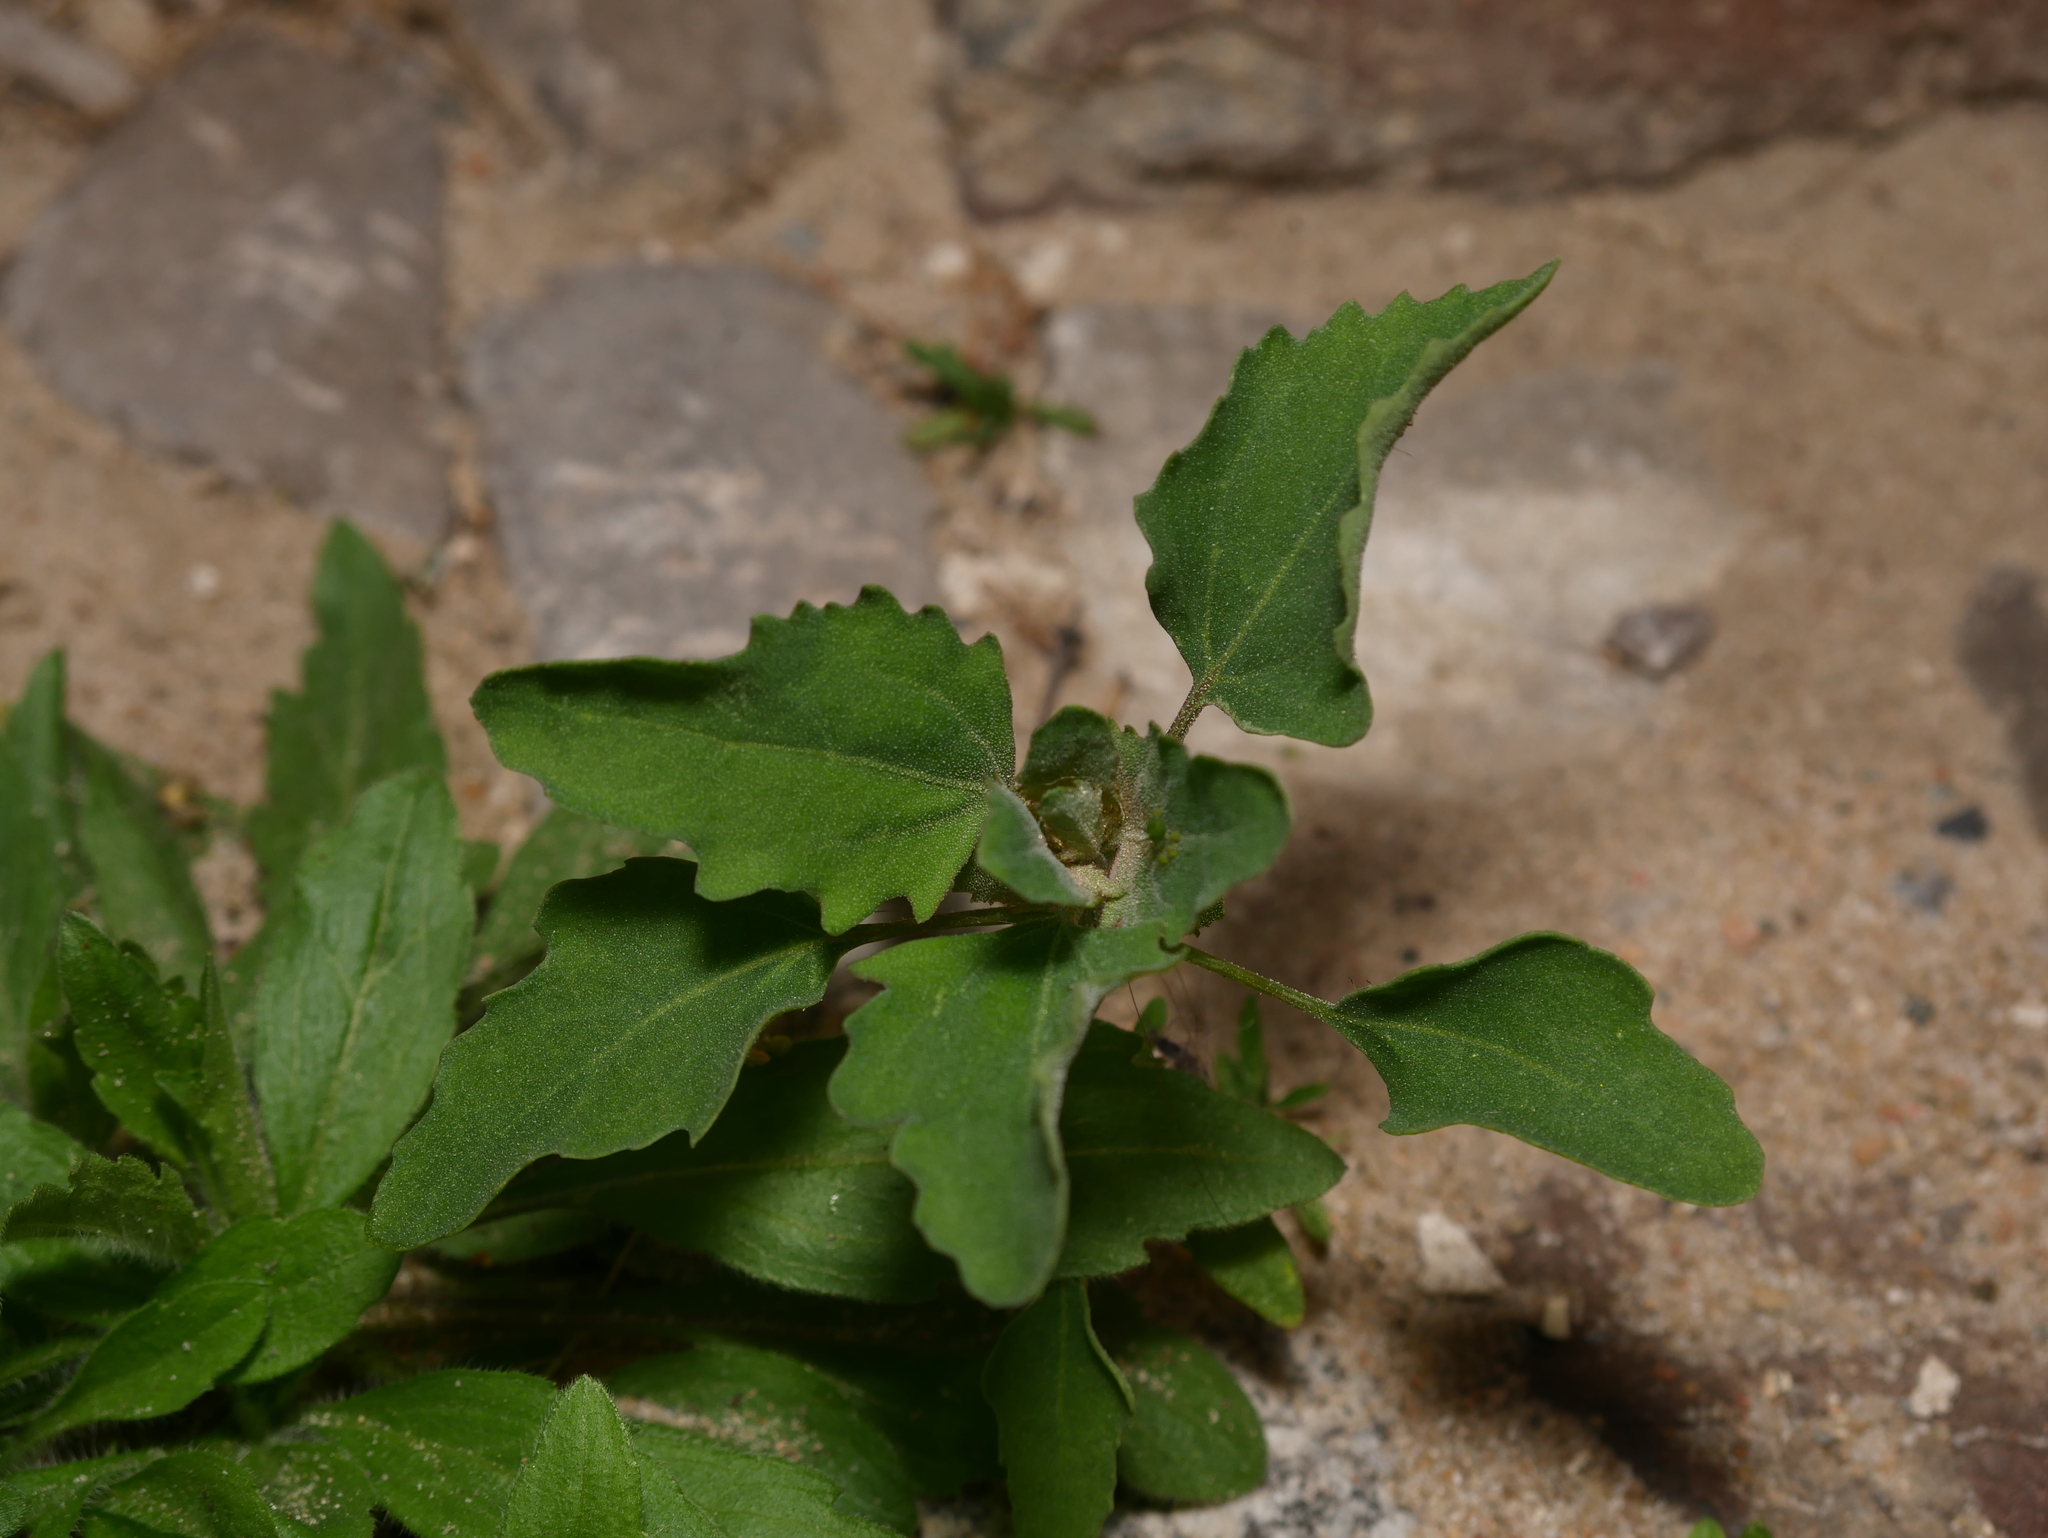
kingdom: Plantae
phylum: Tracheophyta
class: Magnoliopsida
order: Caryophyllales
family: Amaranthaceae
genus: Chenopodium
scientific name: Chenopodium album
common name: Fat-hen
